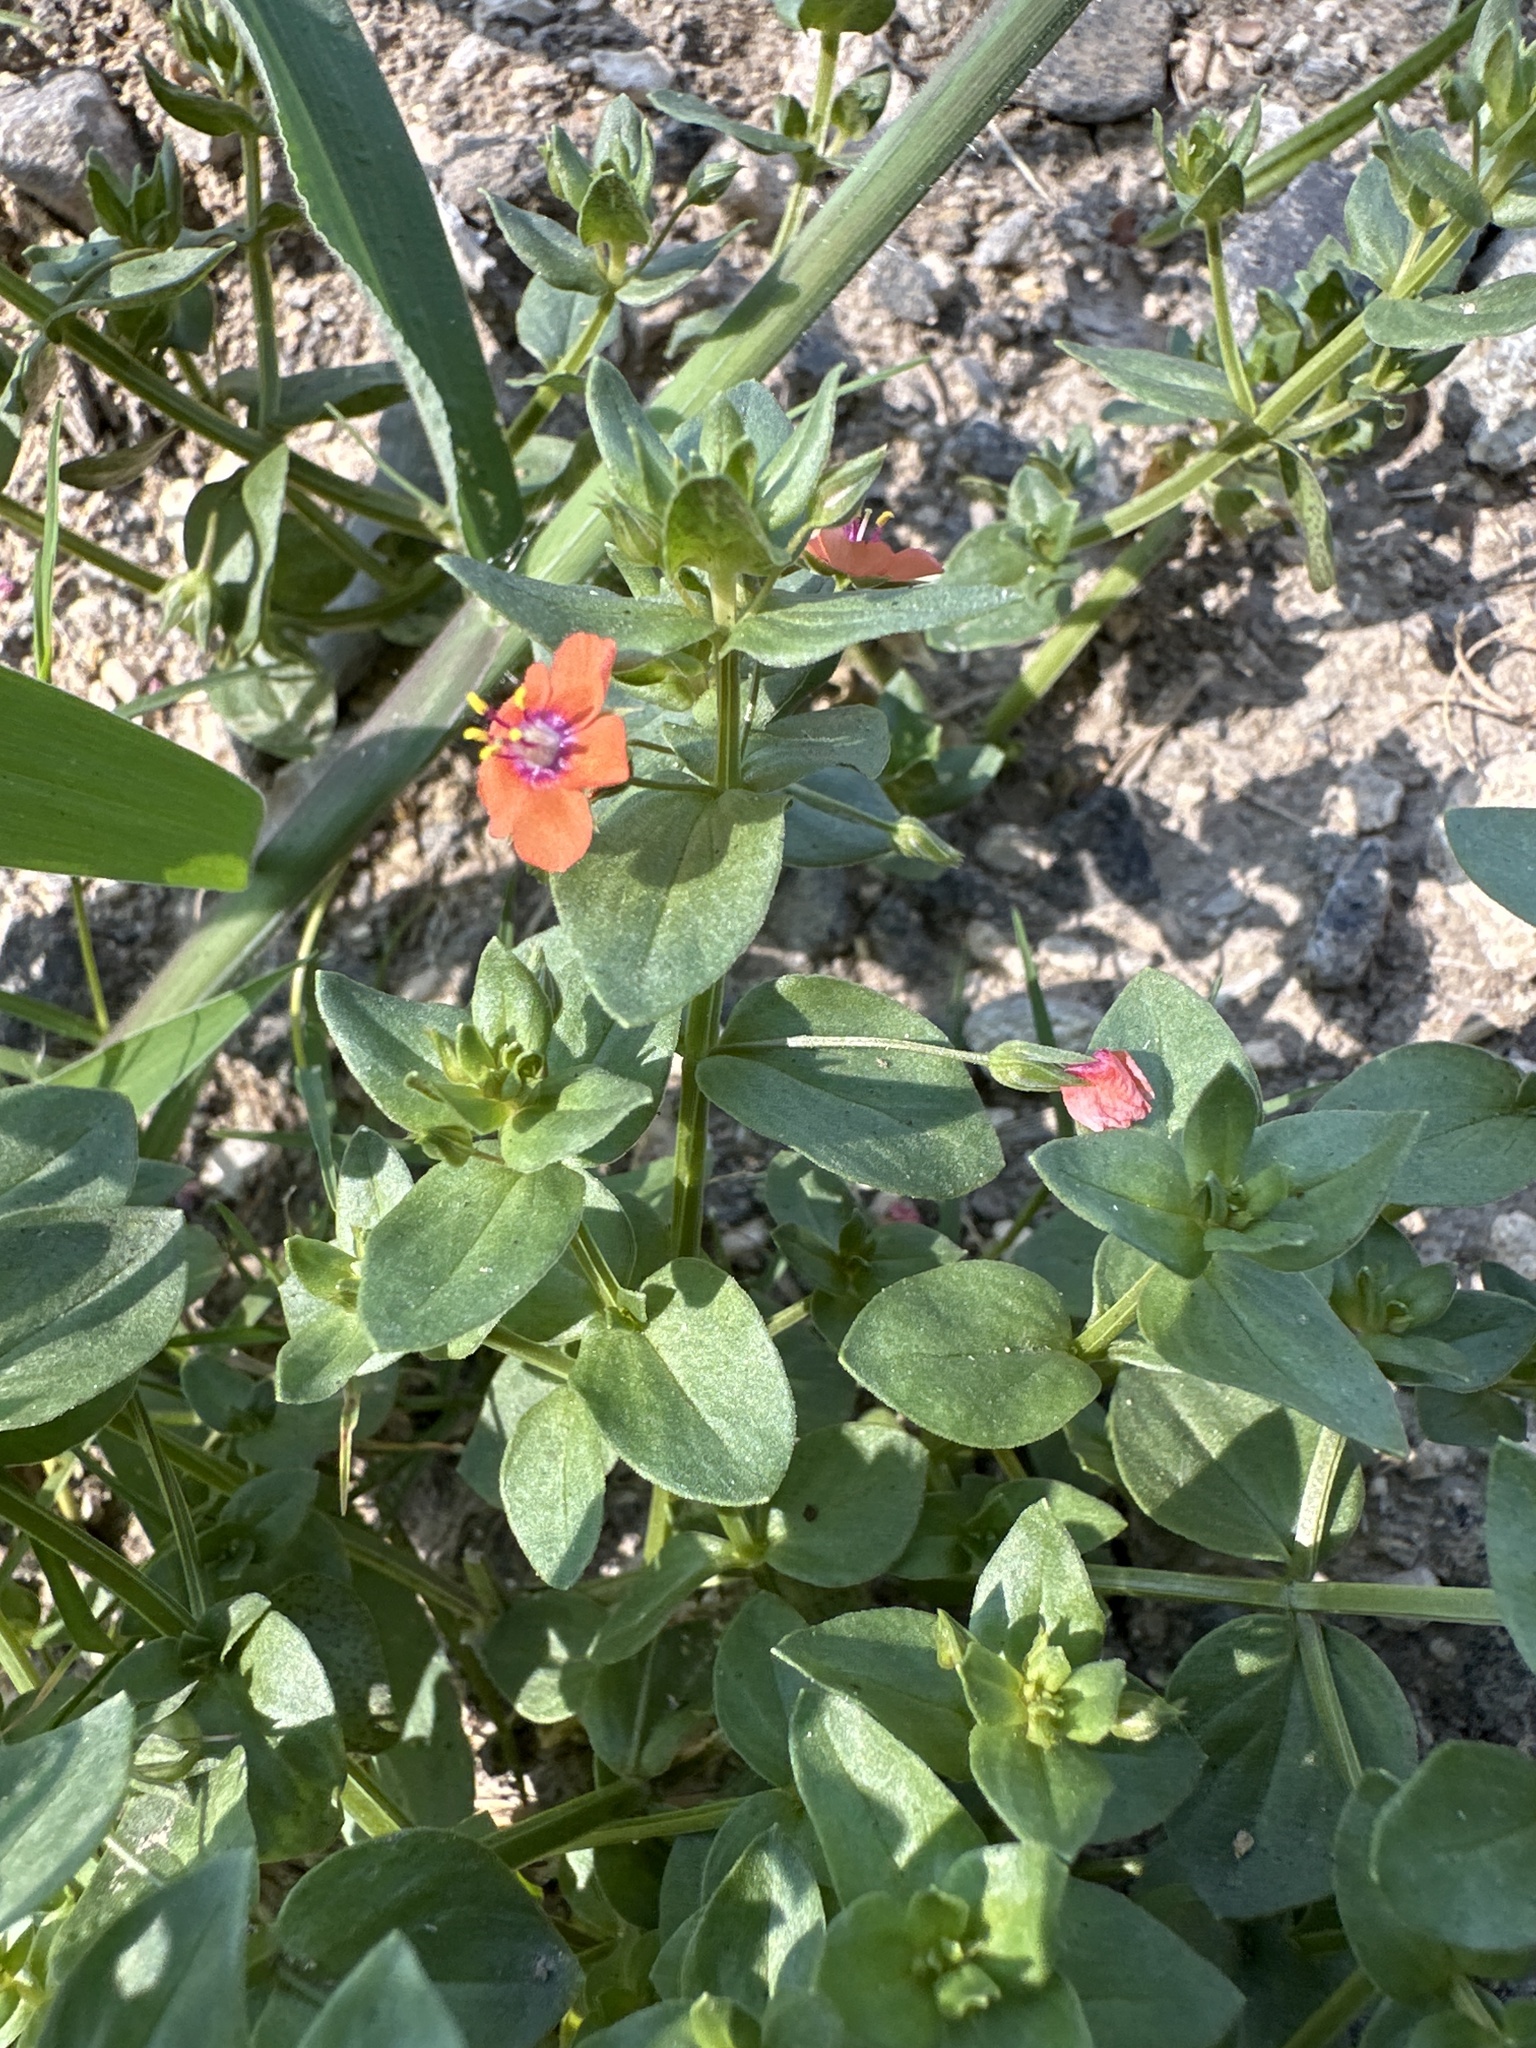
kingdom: Plantae
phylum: Tracheophyta
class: Magnoliopsida
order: Ericales
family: Primulaceae
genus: Lysimachia
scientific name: Lysimachia arvensis
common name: Scarlet pimpernel
